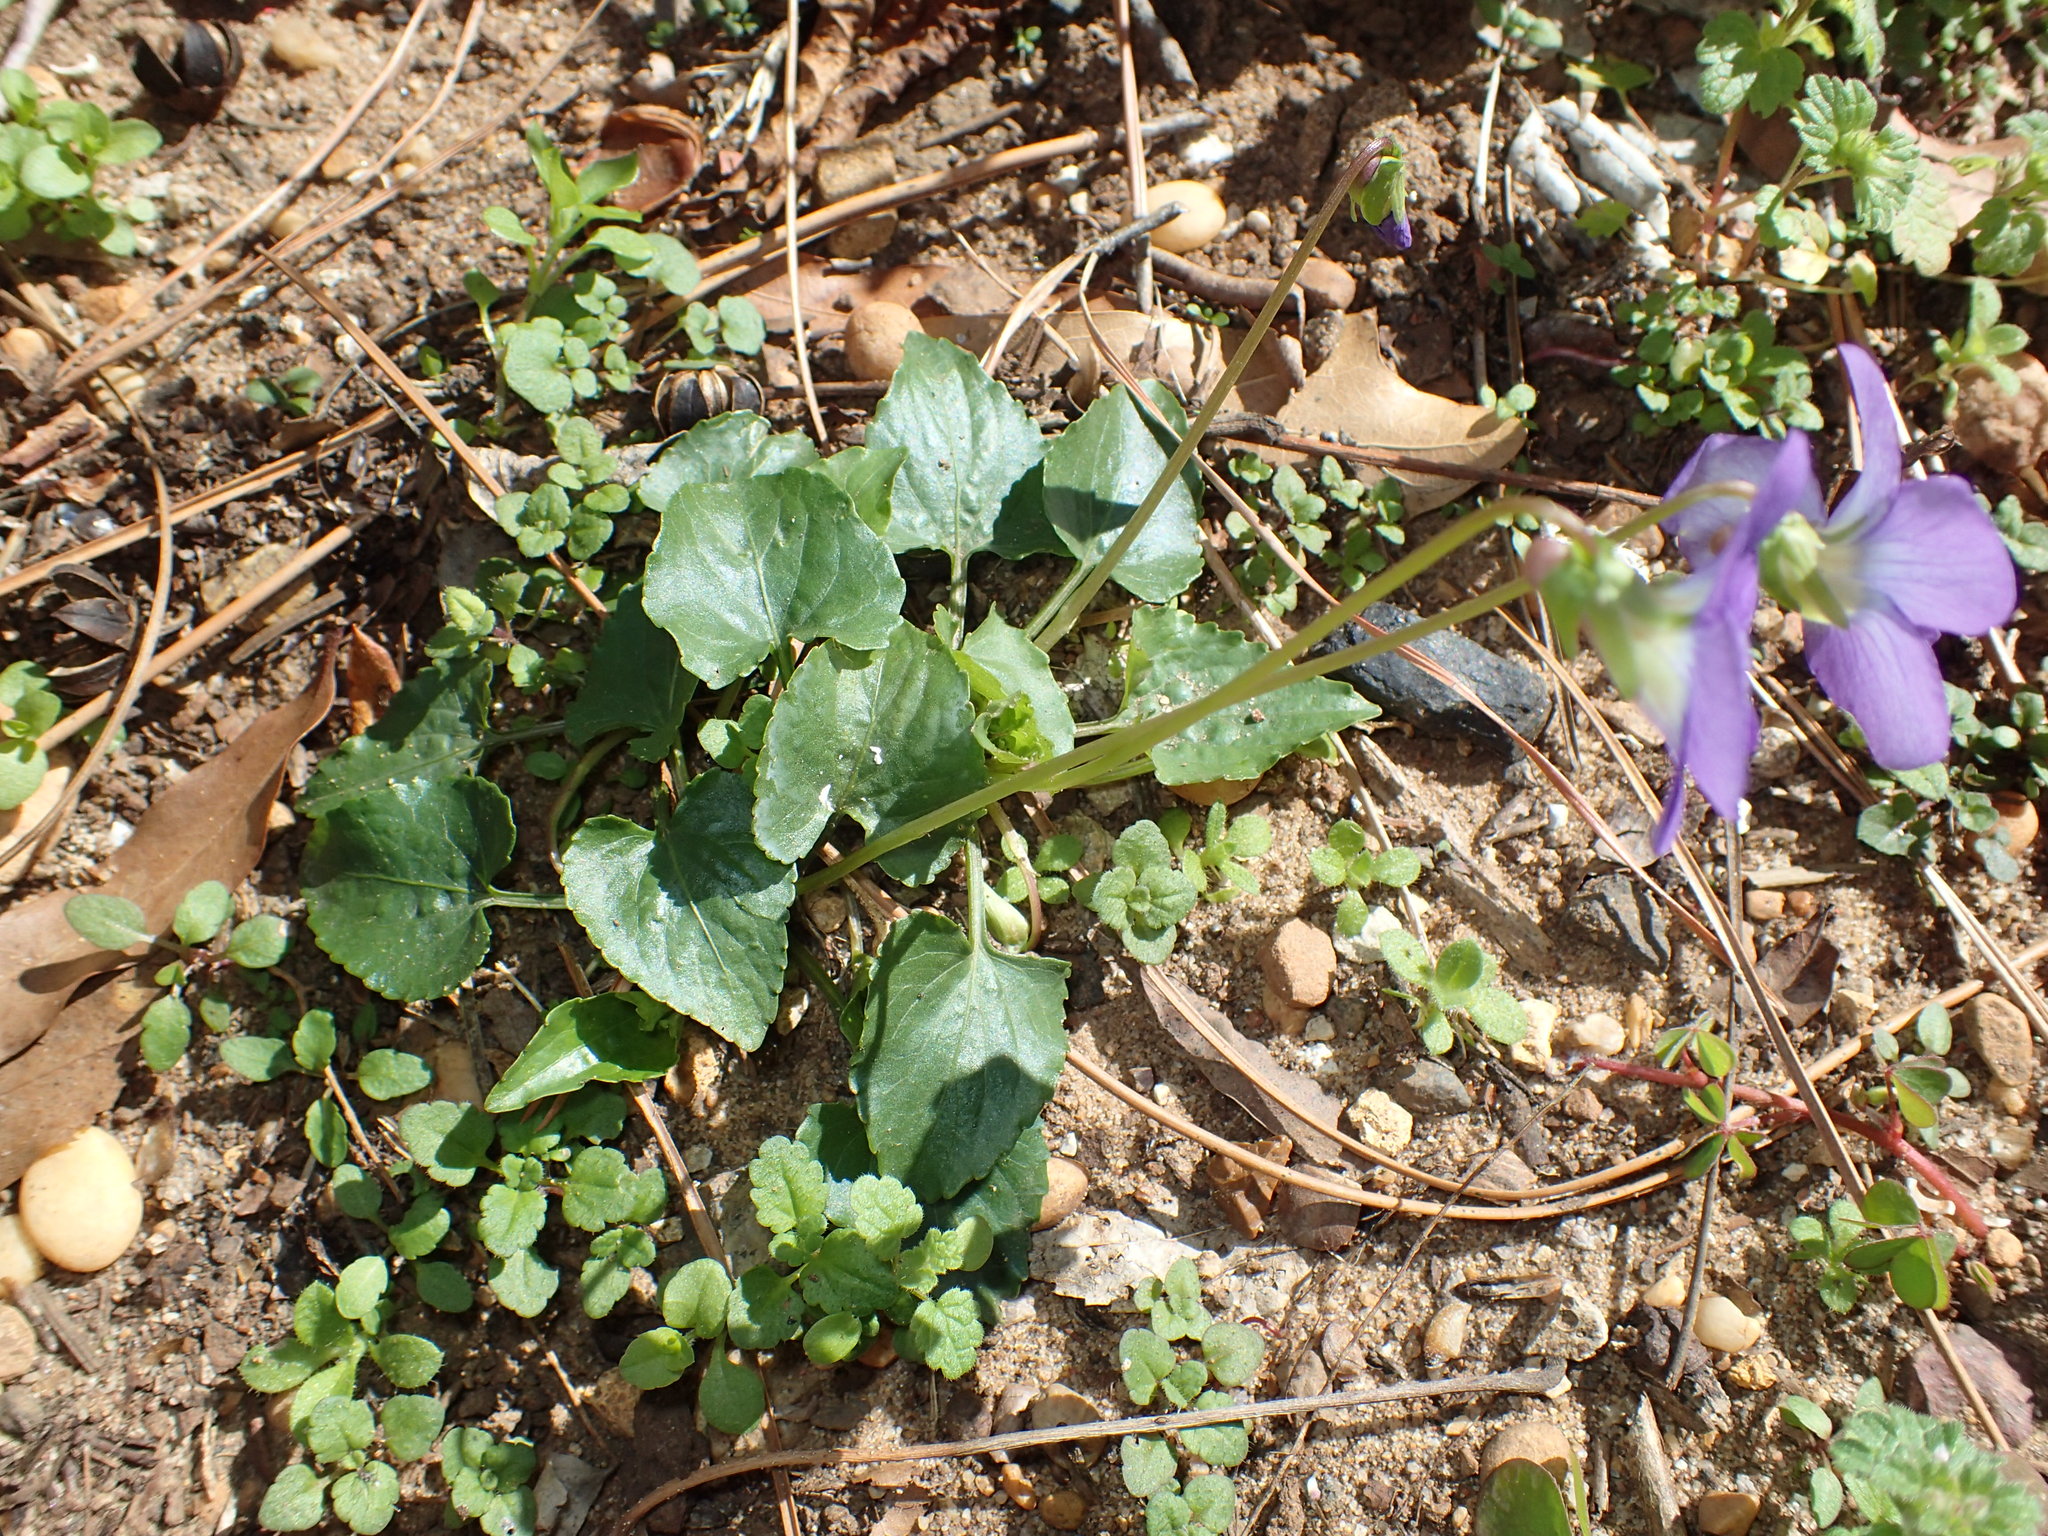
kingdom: Plantae
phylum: Tracheophyta
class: Magnoliopsida
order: Malpighiales
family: Violaceae
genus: Viola
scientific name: Viola sororia
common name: Dooryard violet
